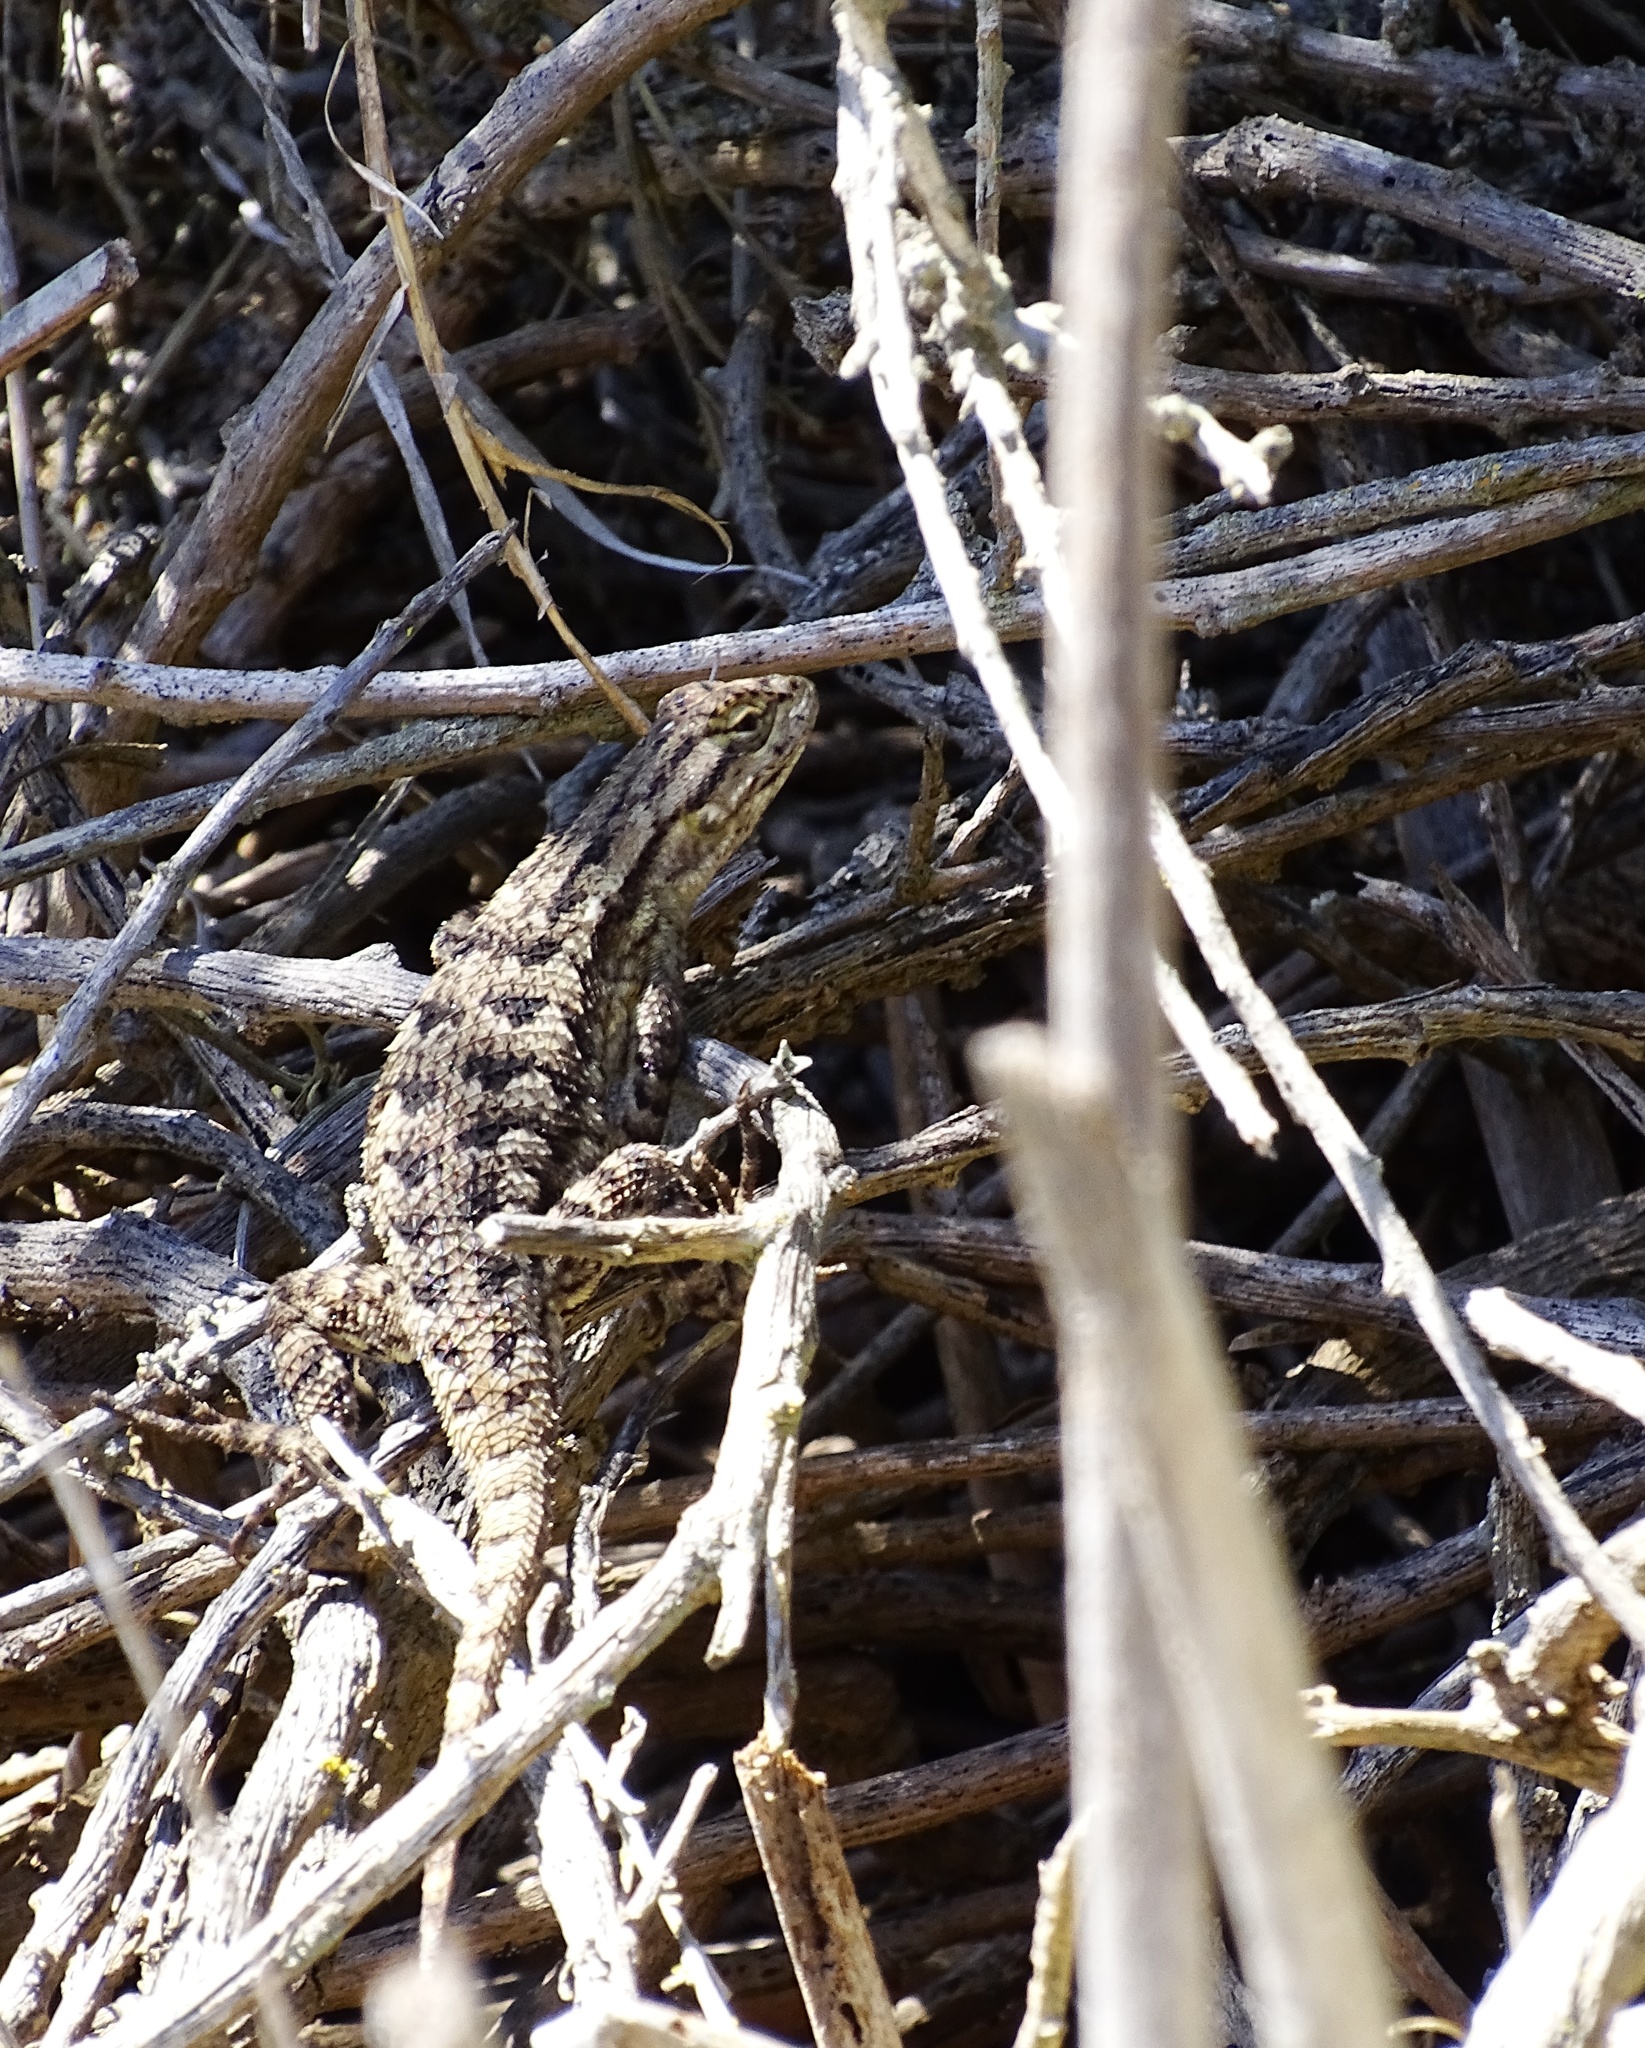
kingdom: Animalia
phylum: Chordata
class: Squamata
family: Phrynosomatidae
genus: Sceloporus
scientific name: Sceloporus occidentalis
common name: Western fence lizard
